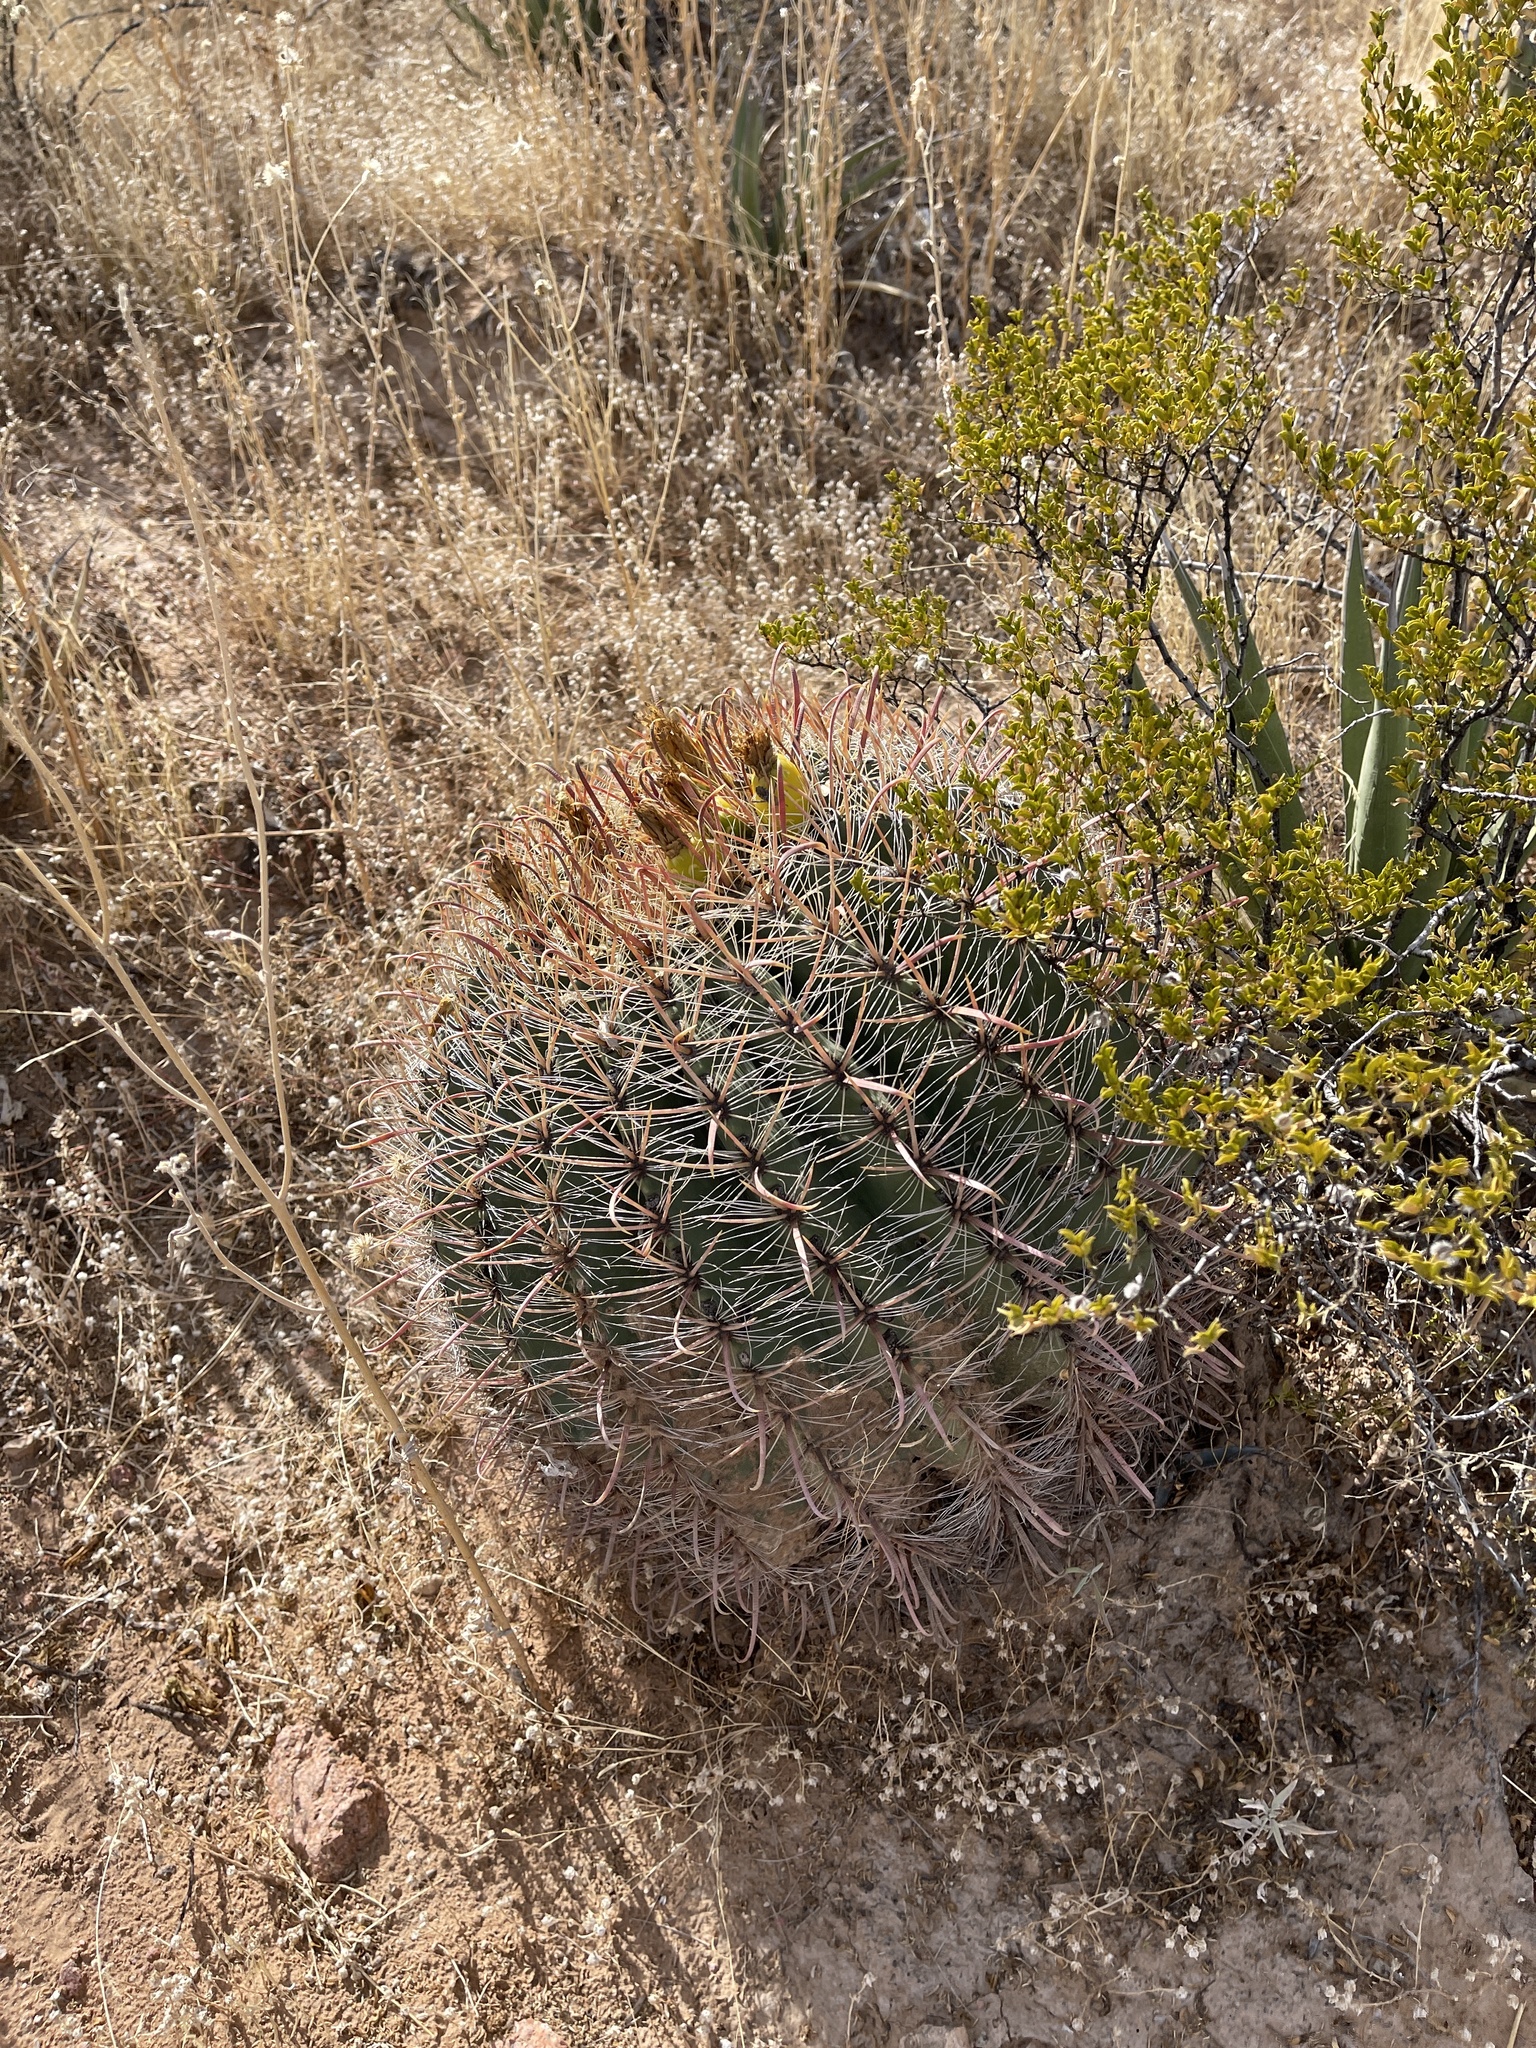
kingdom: Plantae
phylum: Tracheophyta
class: Magnoliopsida
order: Caryophyllales
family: Cactaceae
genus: Ferocactus
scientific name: Ferocactus wislizeni
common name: Candy barrel cactus
